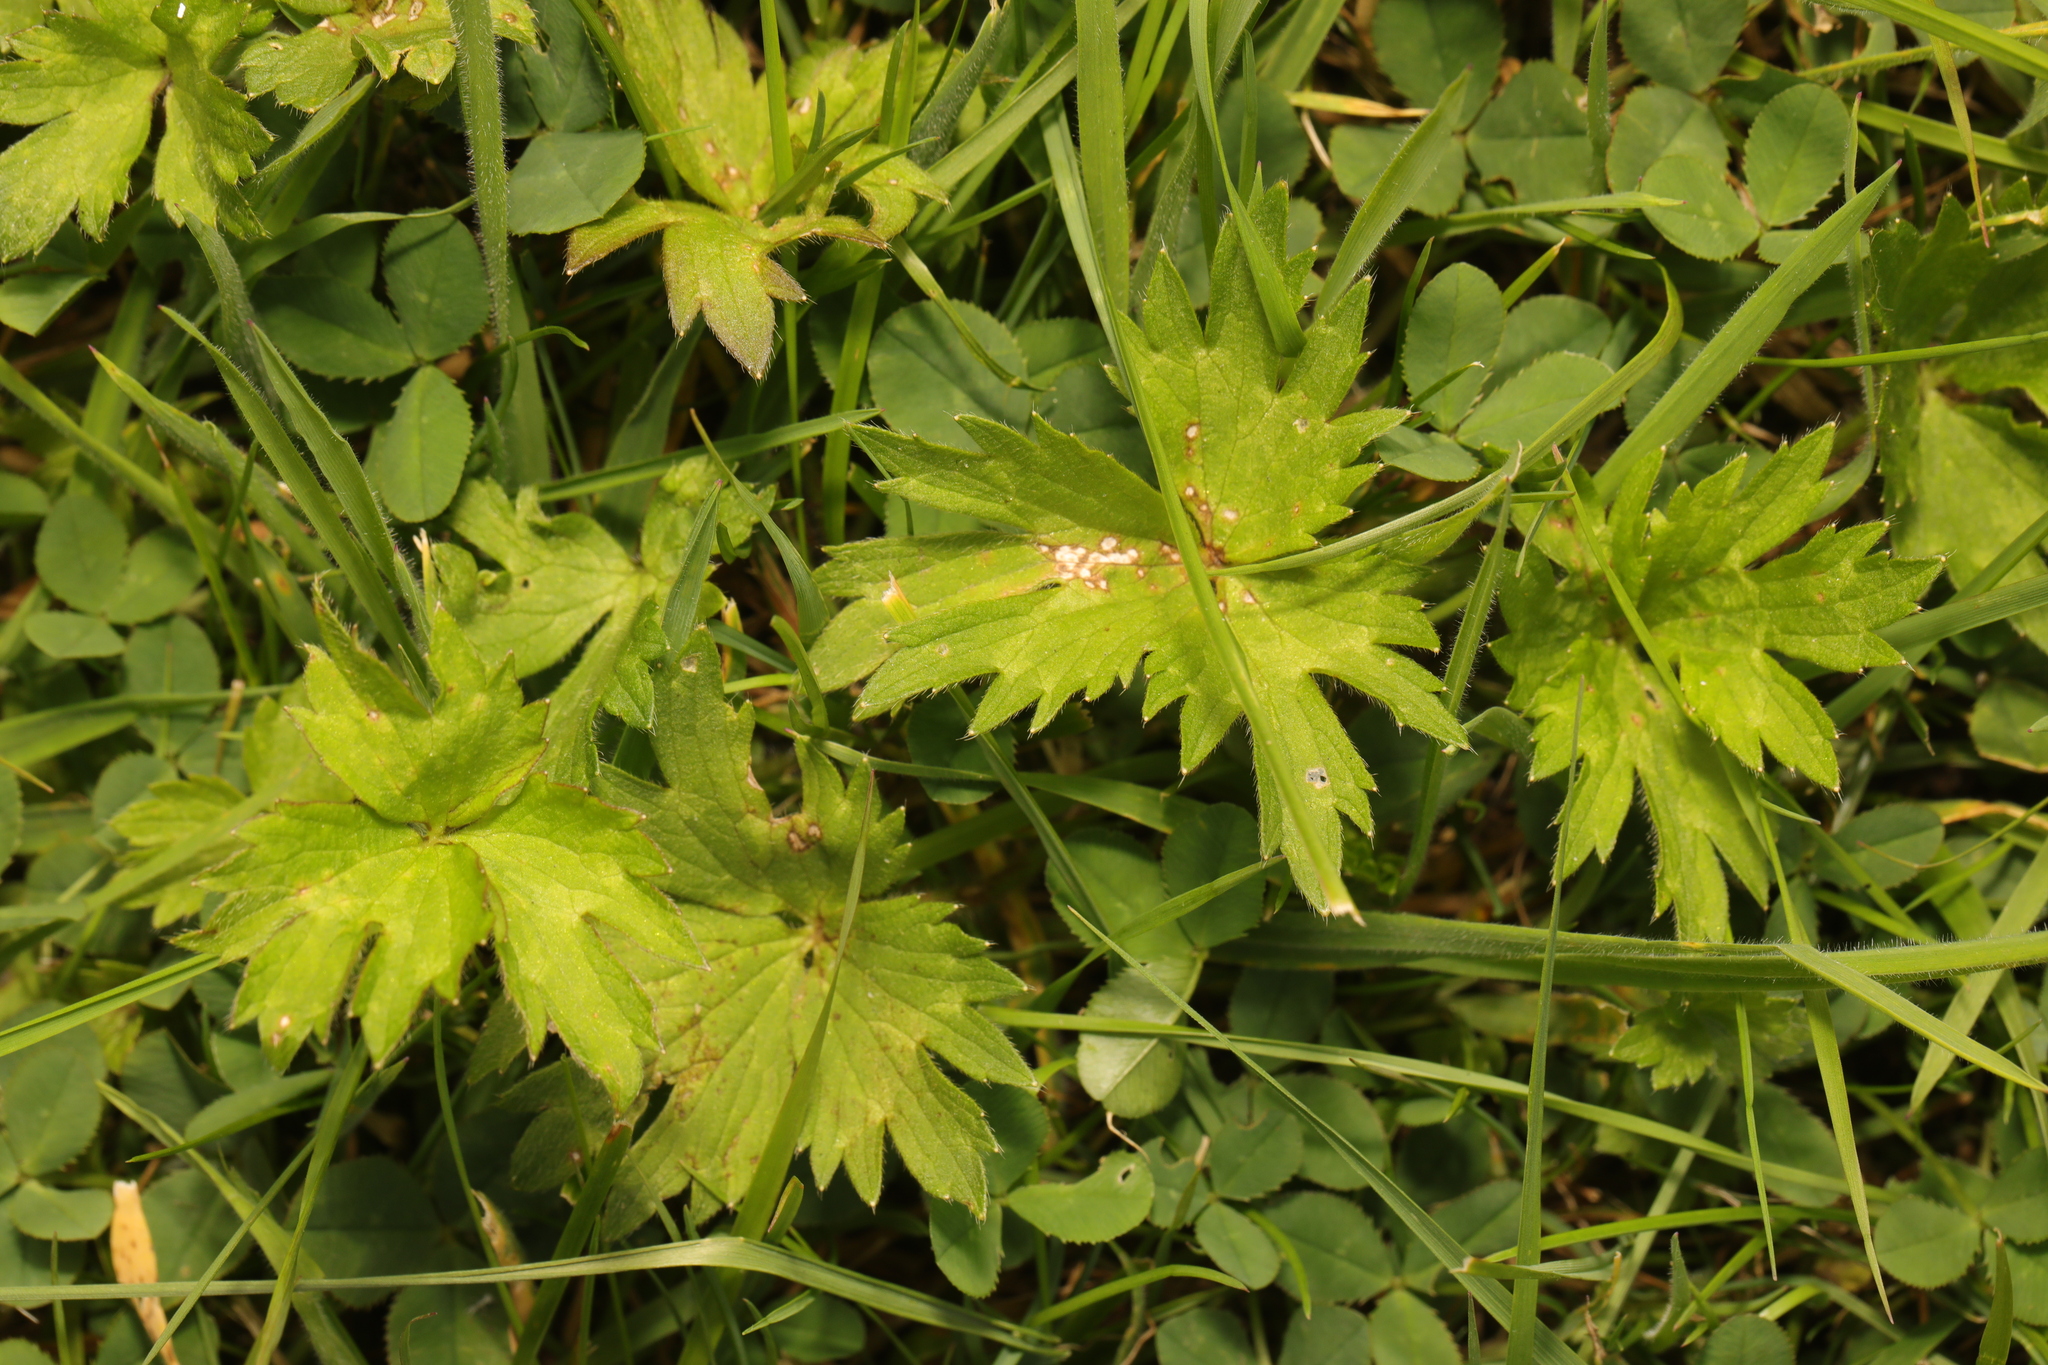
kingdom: Plantae
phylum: Tracheophyta
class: Magnoliopsida
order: Ranunculales
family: Ranunculaceae
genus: Ranunculus
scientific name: Ranunculus acris
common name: Meadow buttercup
